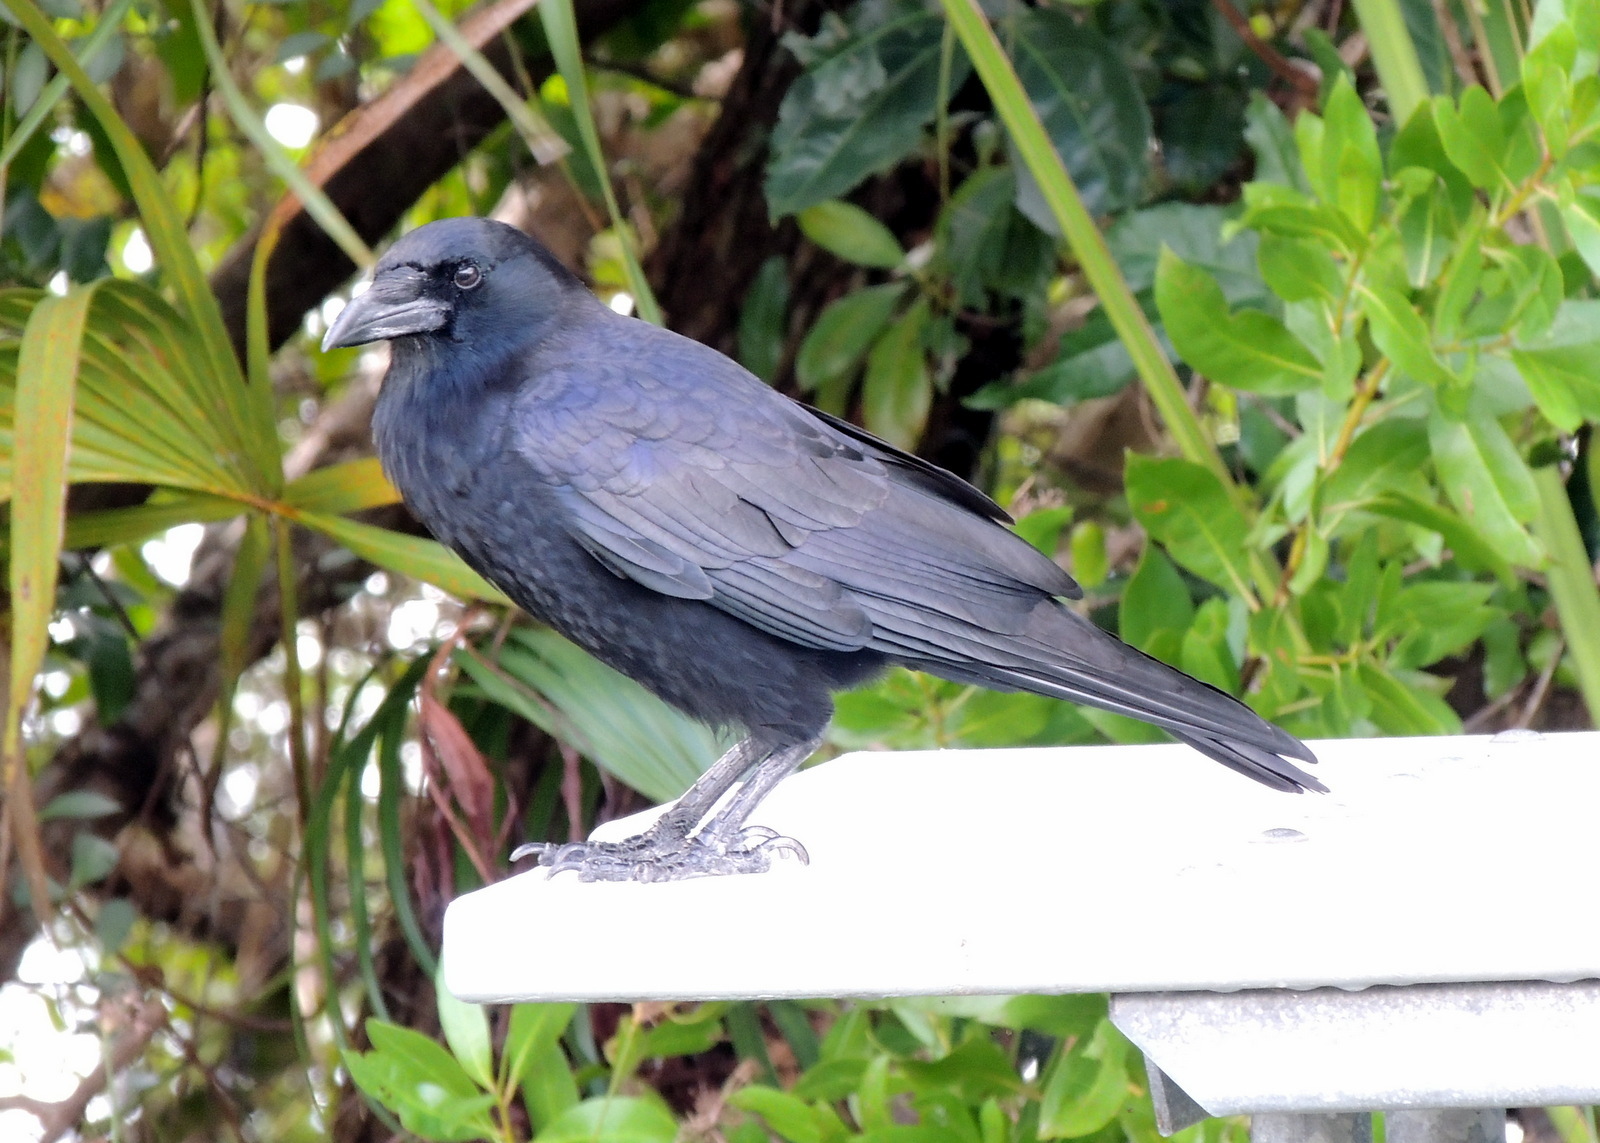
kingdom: Animalia
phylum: Chordata
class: Aves
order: Passeriformes
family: Corvidae
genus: Corvus
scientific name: Corvus brachyrhynchos
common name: American crow
